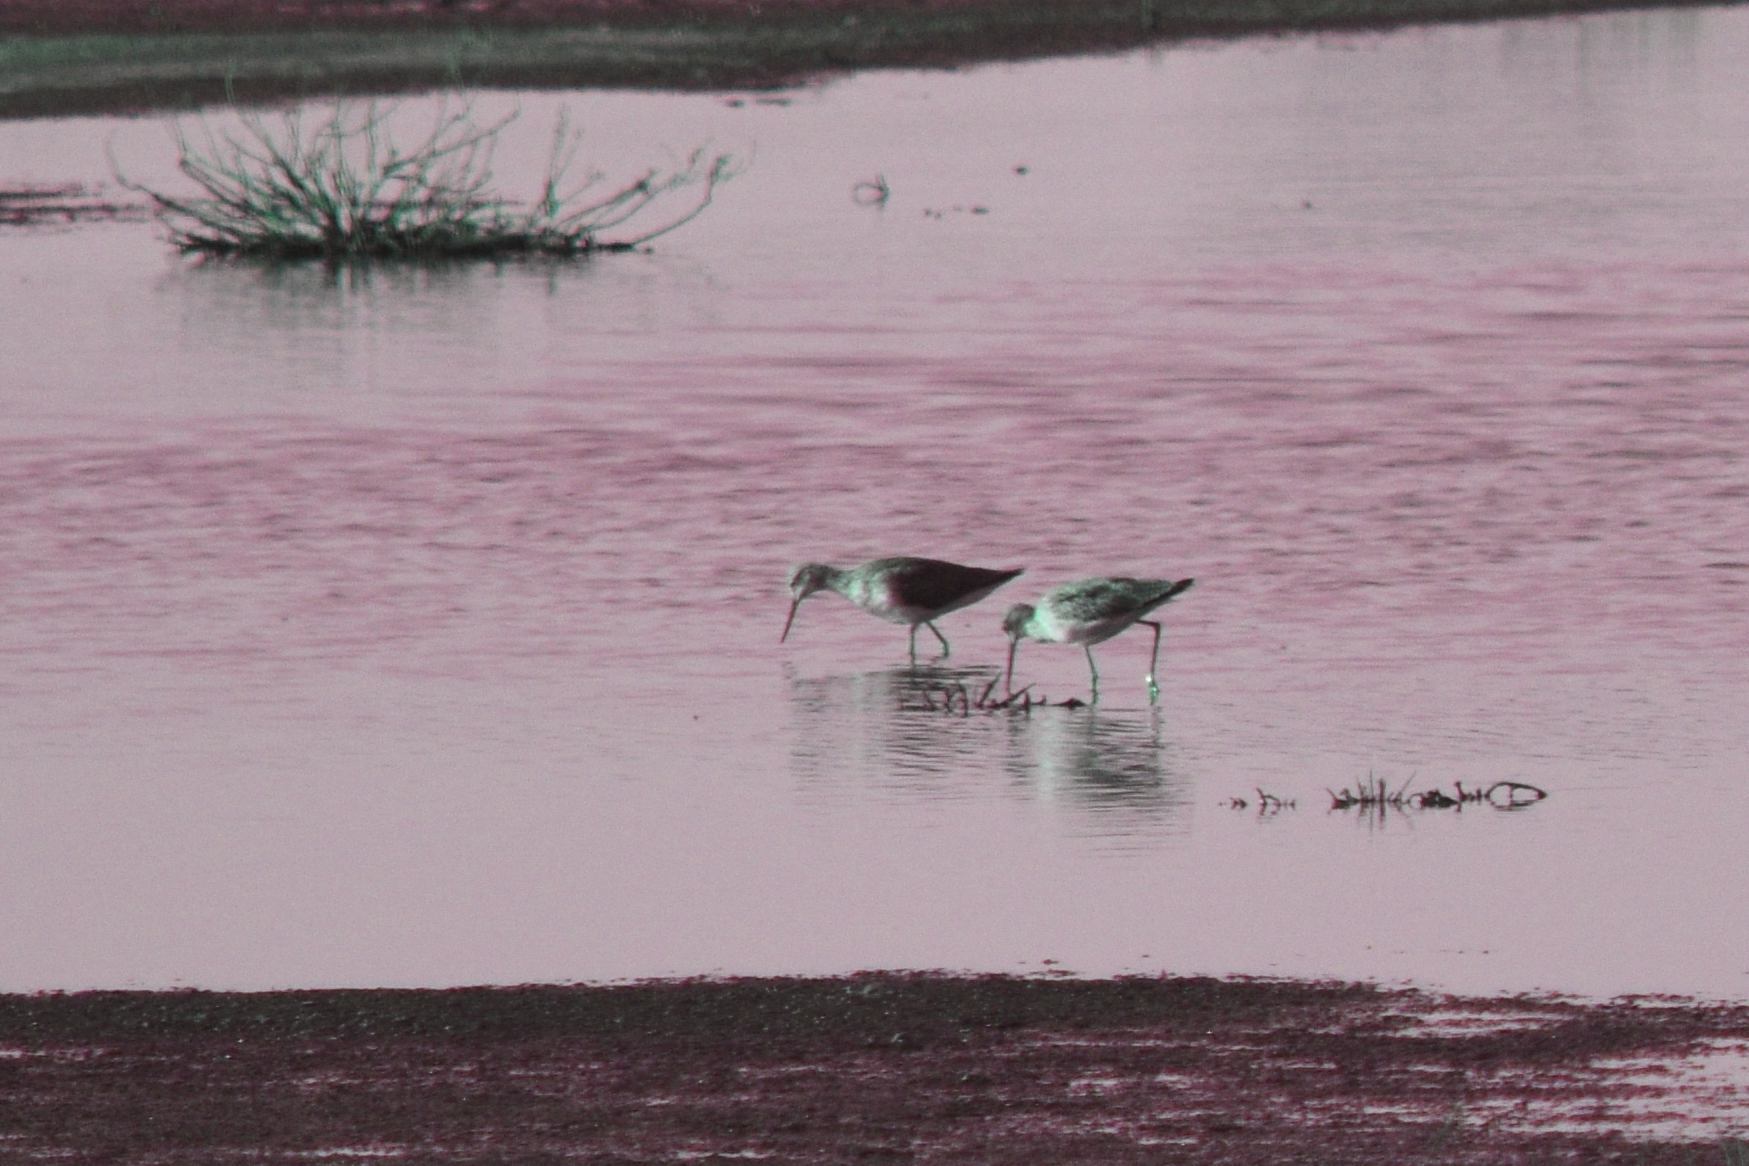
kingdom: Animalia
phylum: Chordata
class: Aves
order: Charadriiformes
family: Scolopacidae
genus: Tringa
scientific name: Tringa melanoleuca
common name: Greater yellowlegs
